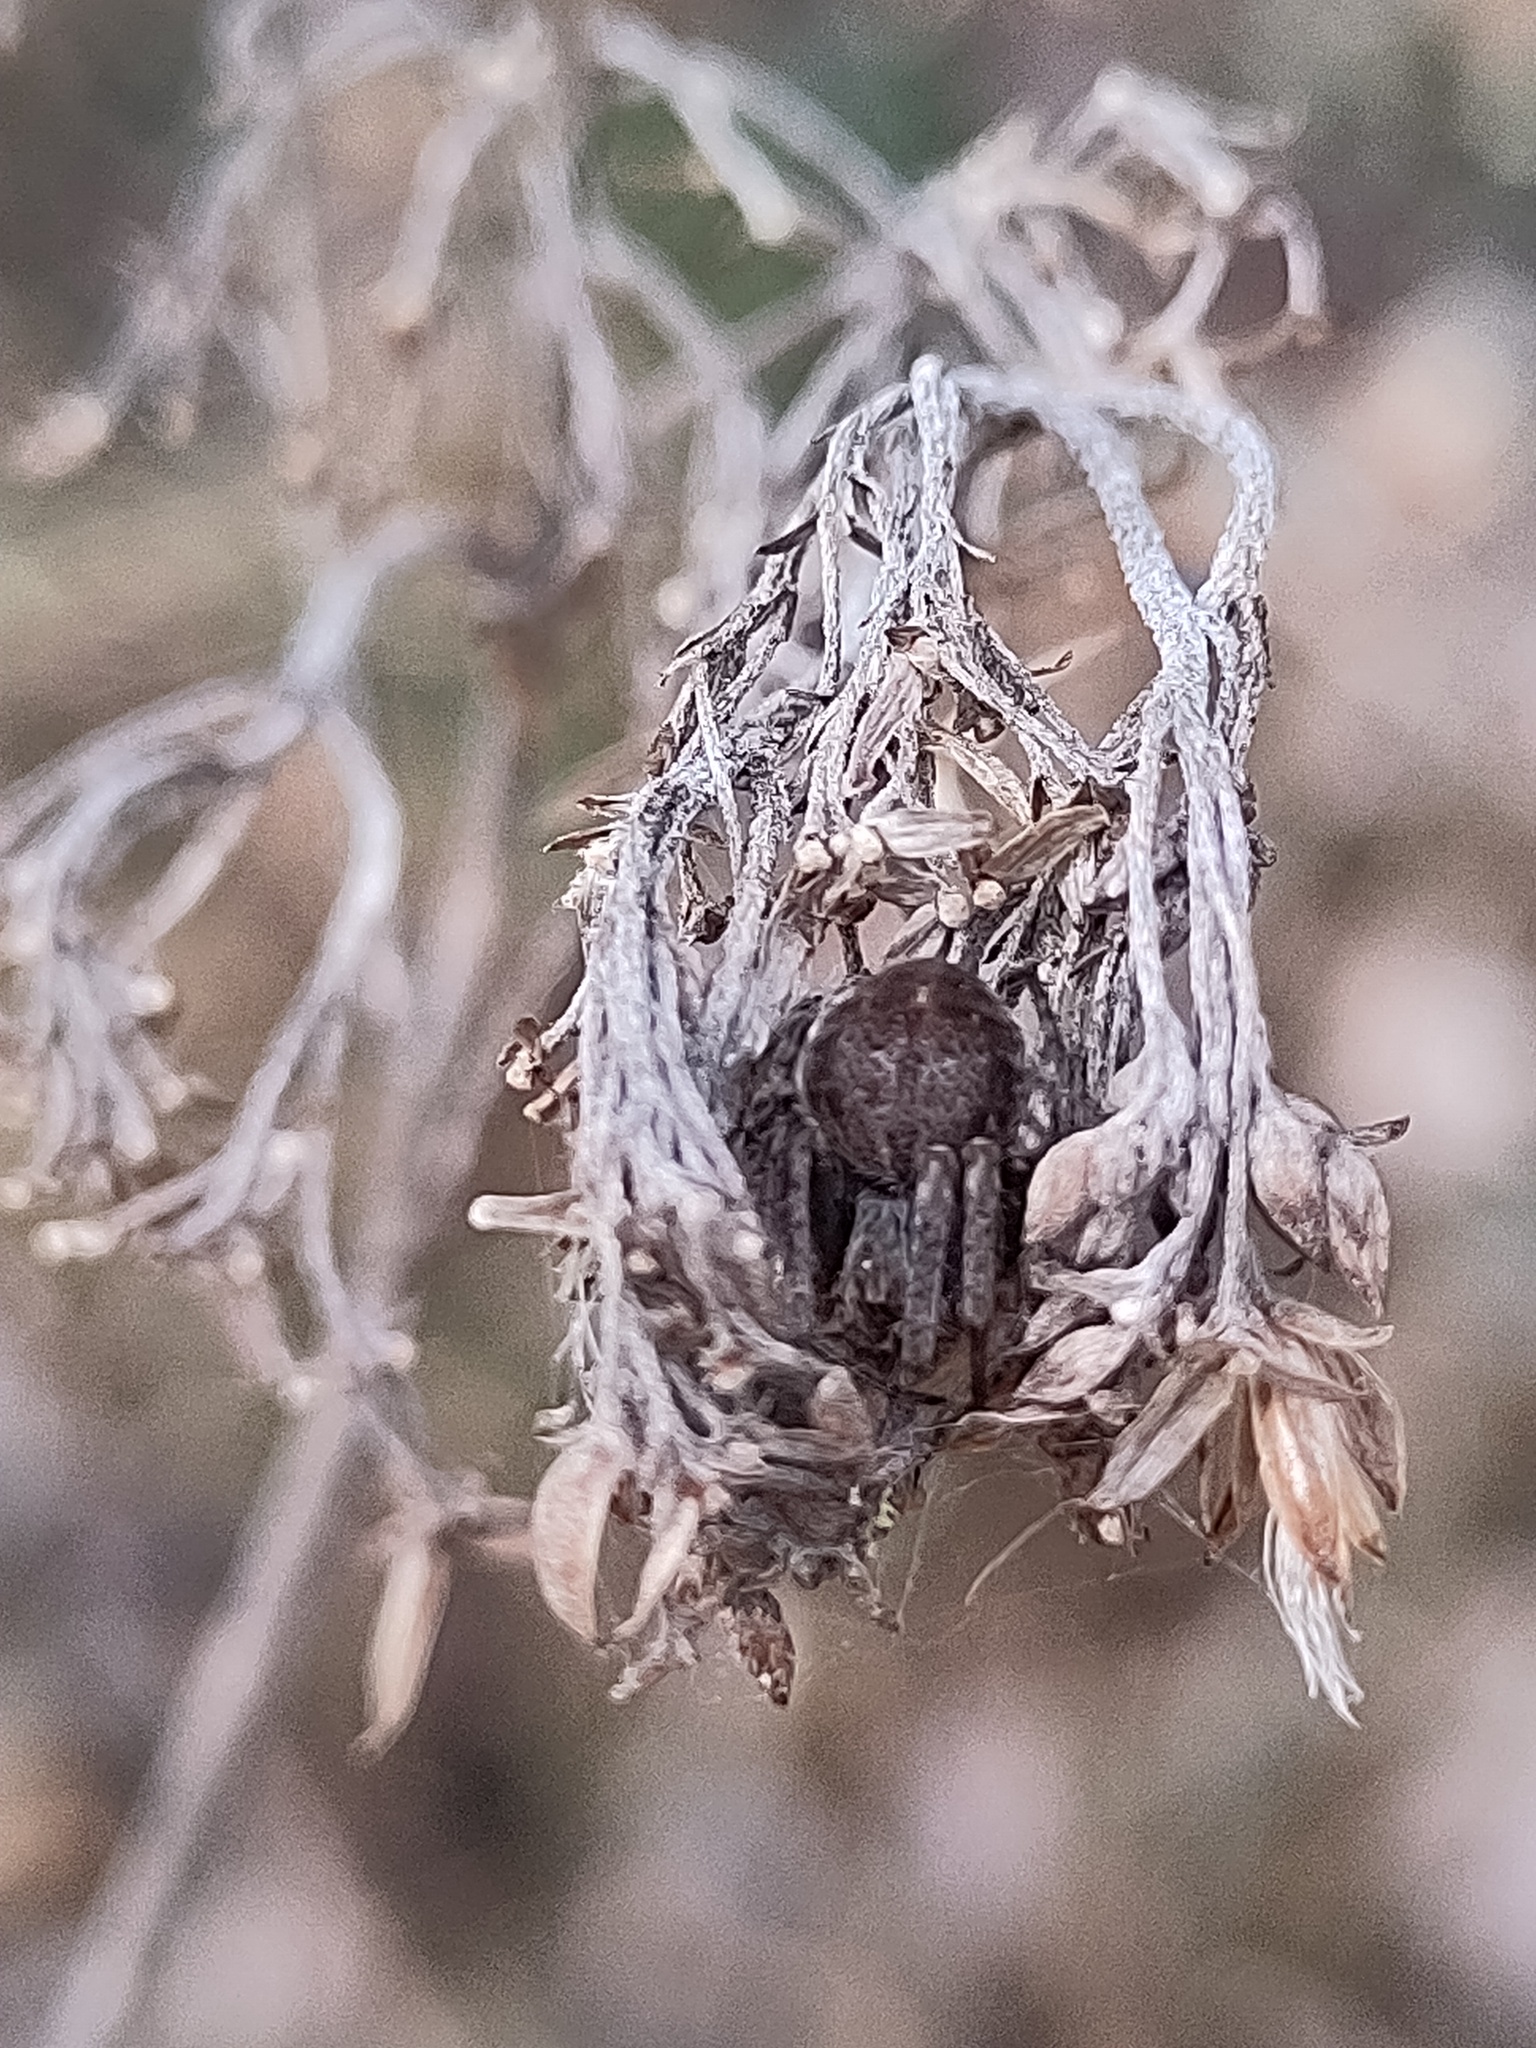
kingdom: Animalia
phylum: Arthropoda
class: Arachnida
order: Araneae
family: Araneidae
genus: Agalenatea
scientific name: Agalenatea redii
